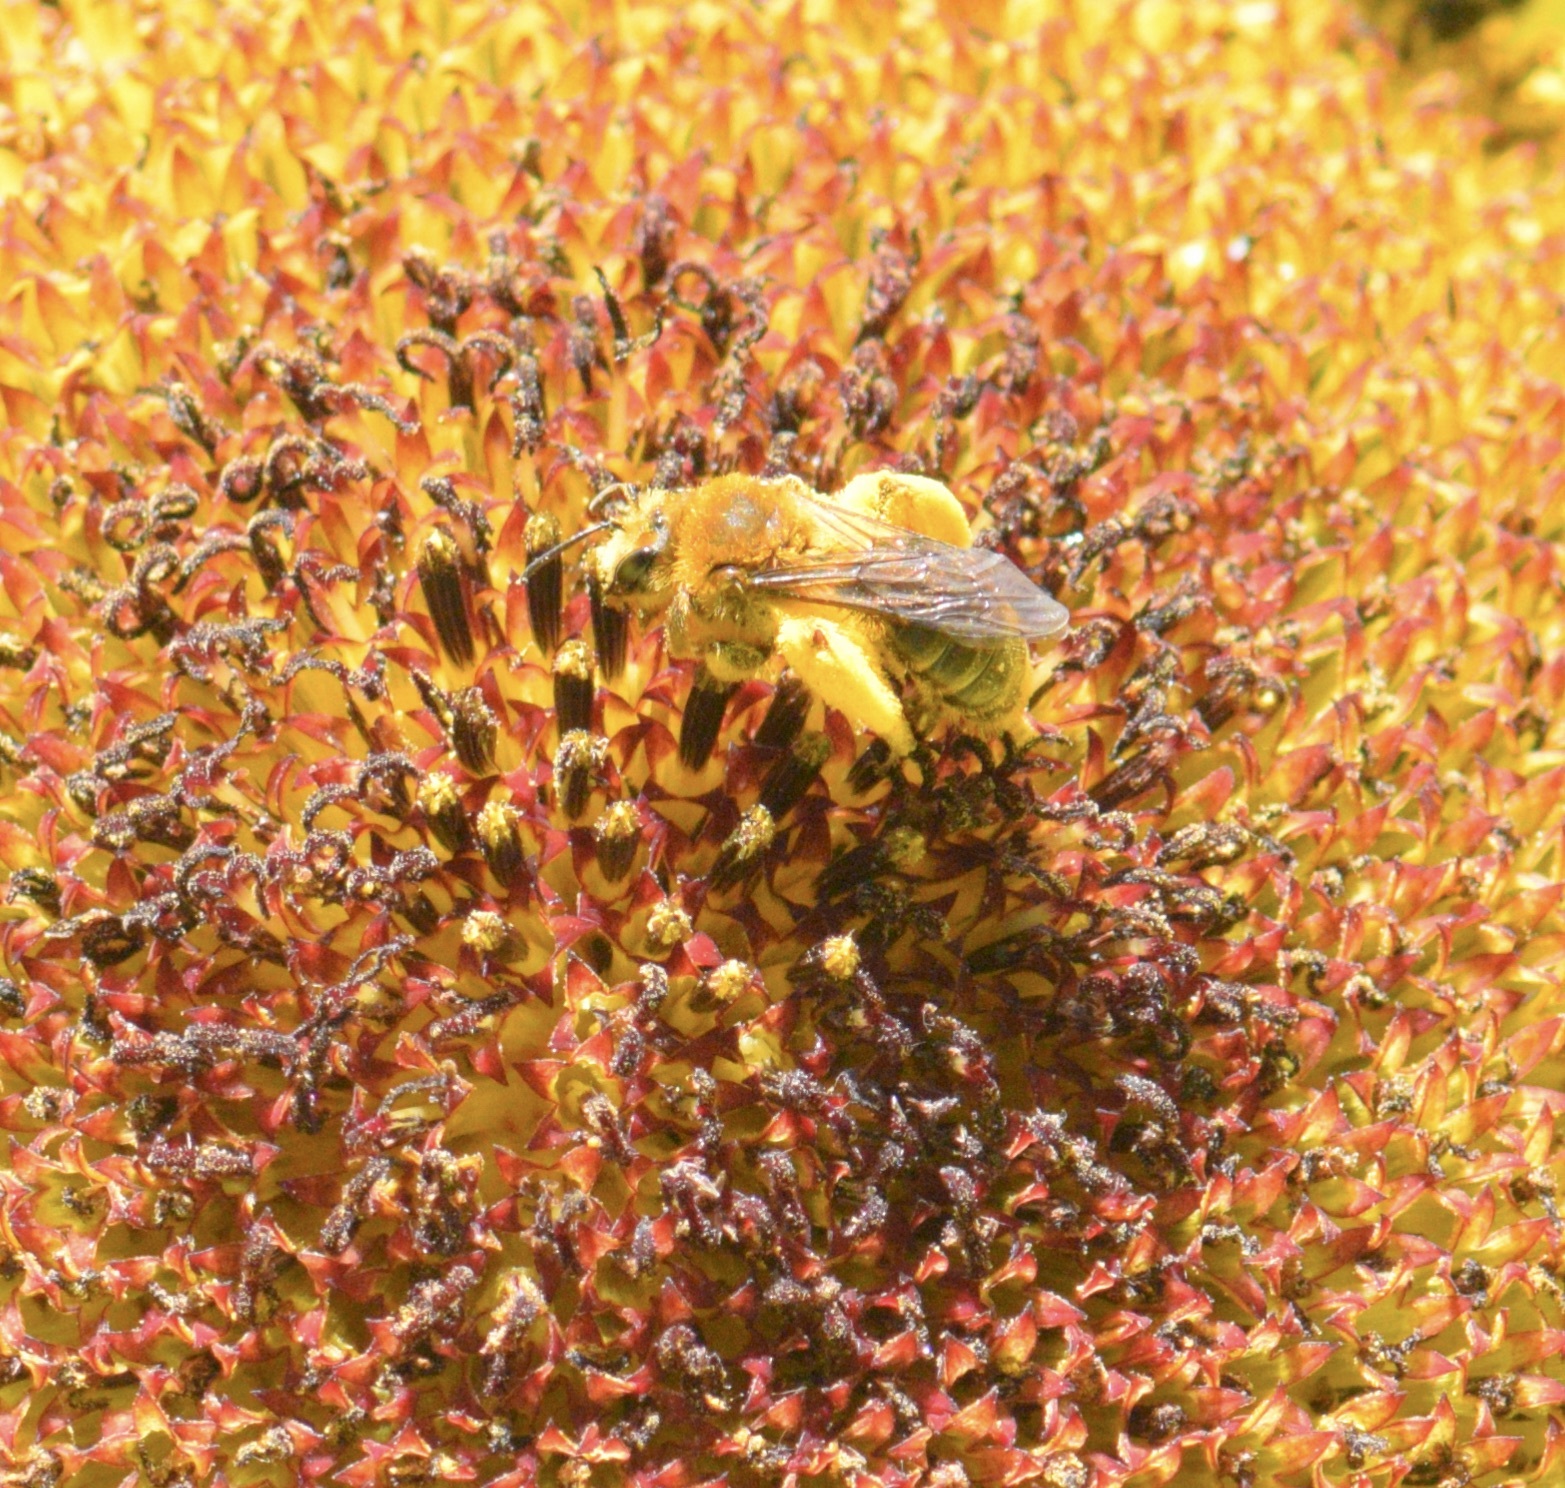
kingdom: Animalia
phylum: Arthropoda
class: Insecta
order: Hymenoptera
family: Andrenidae
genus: Andrena
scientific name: Andrena helianthi
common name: Sunflower mining bee
